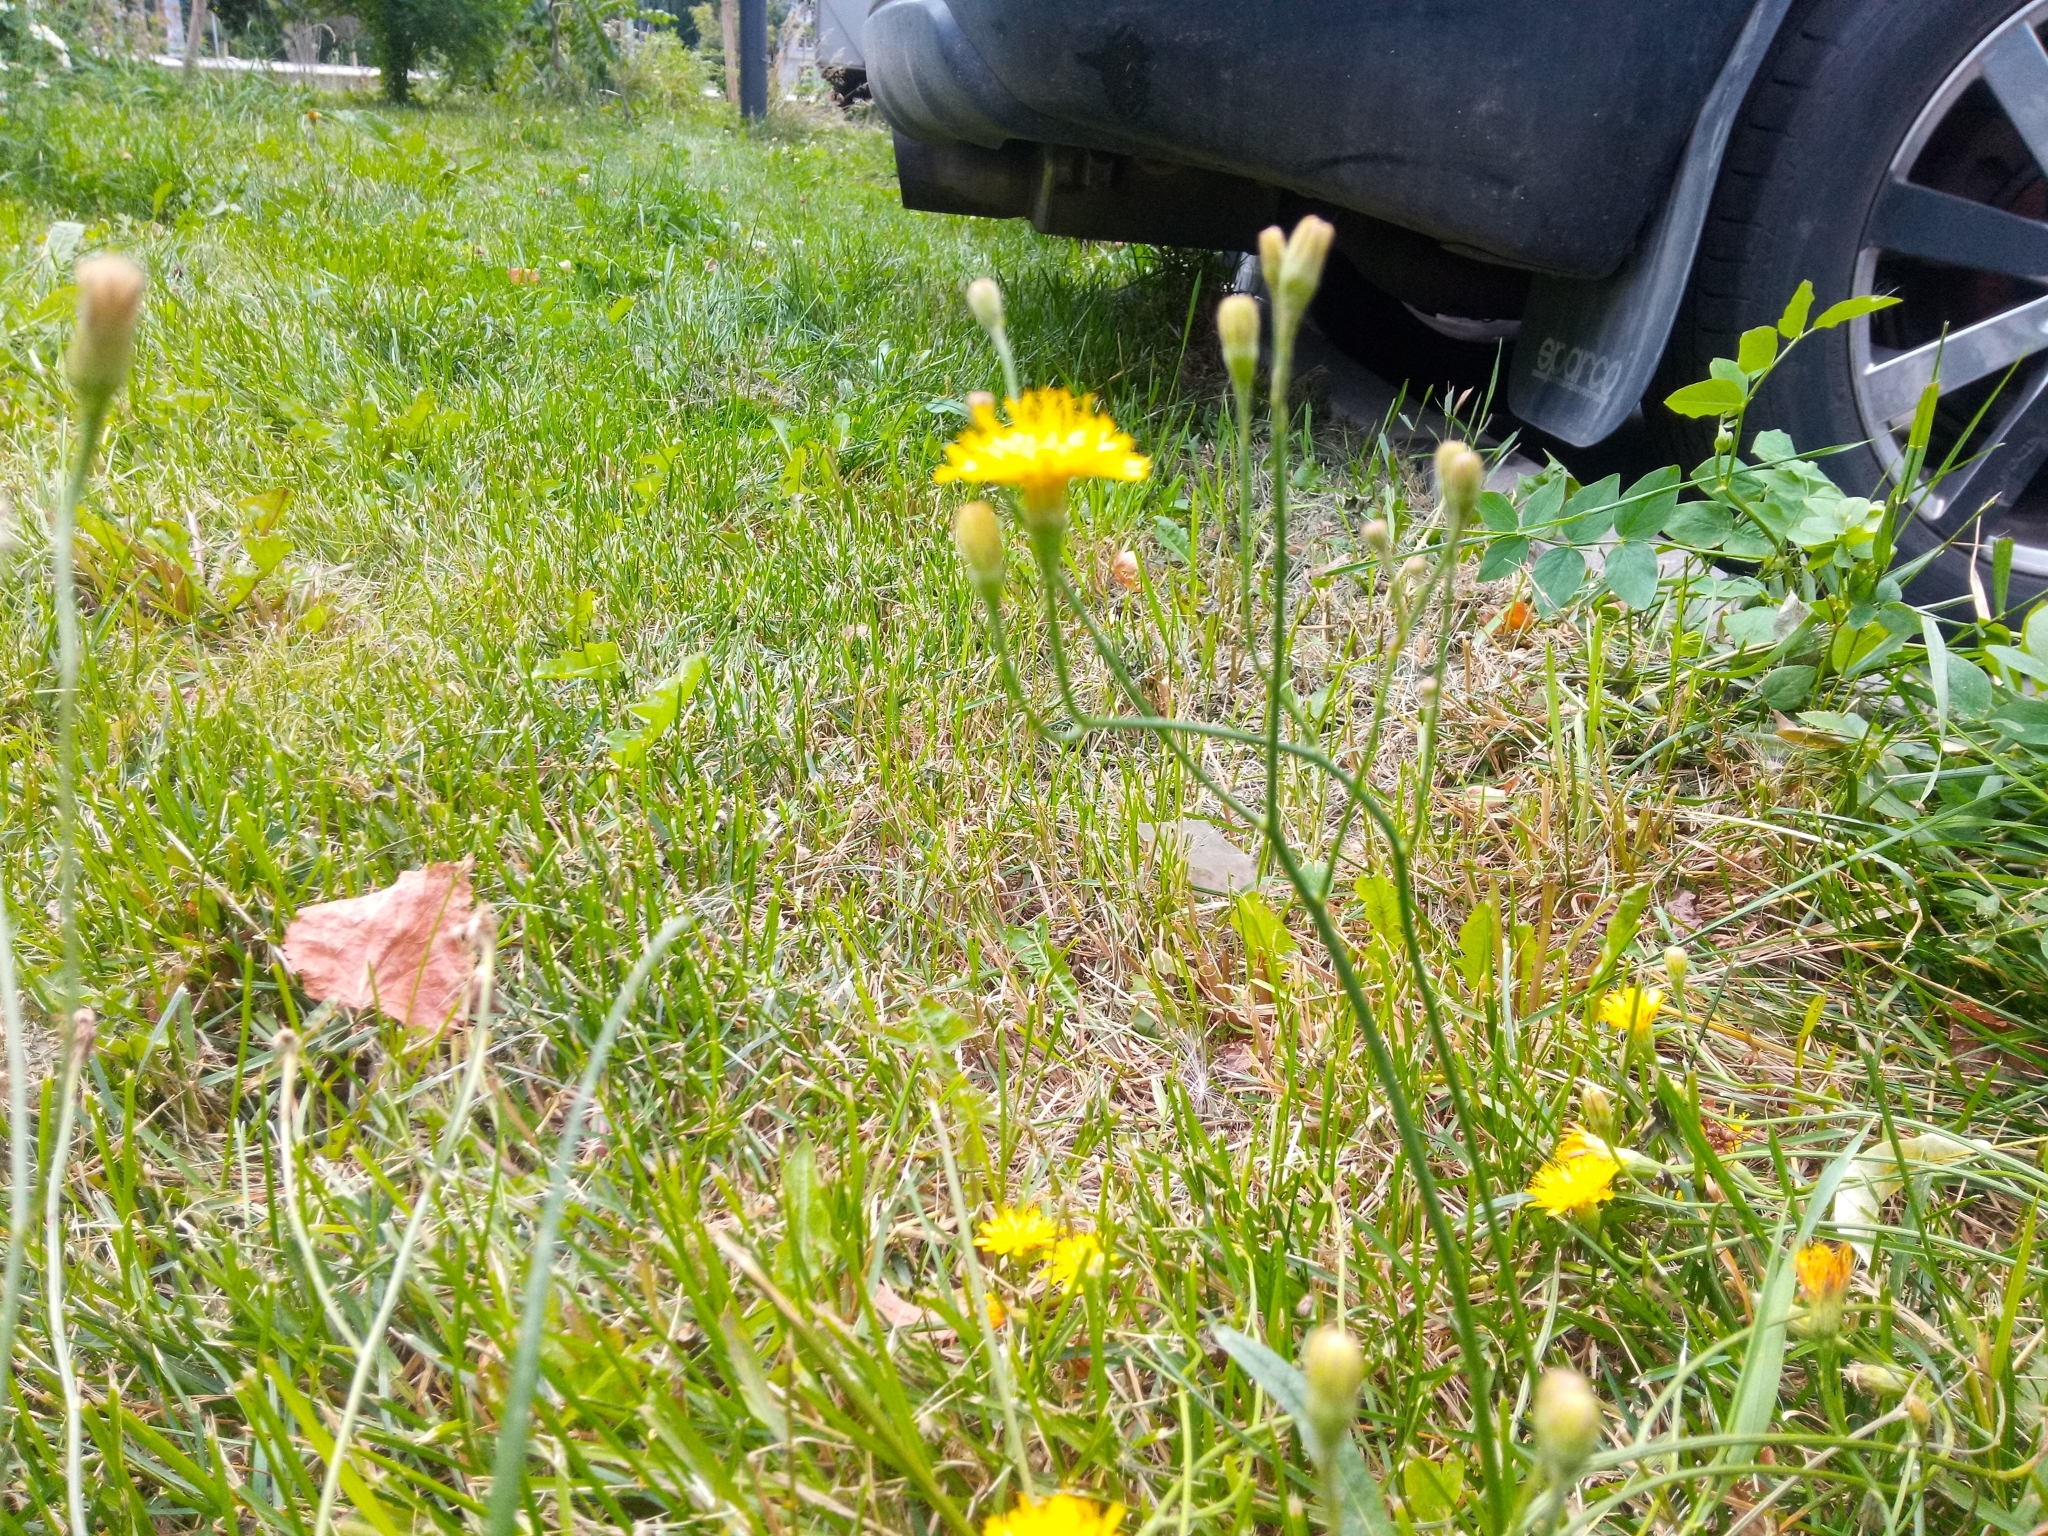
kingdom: Plantae
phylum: Tracheophyta
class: Magnoliopsida
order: Asterales
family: Asteraceae
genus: Scorzoneroides
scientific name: Scorzoneroides autumnalis
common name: Autumn hawkbit
